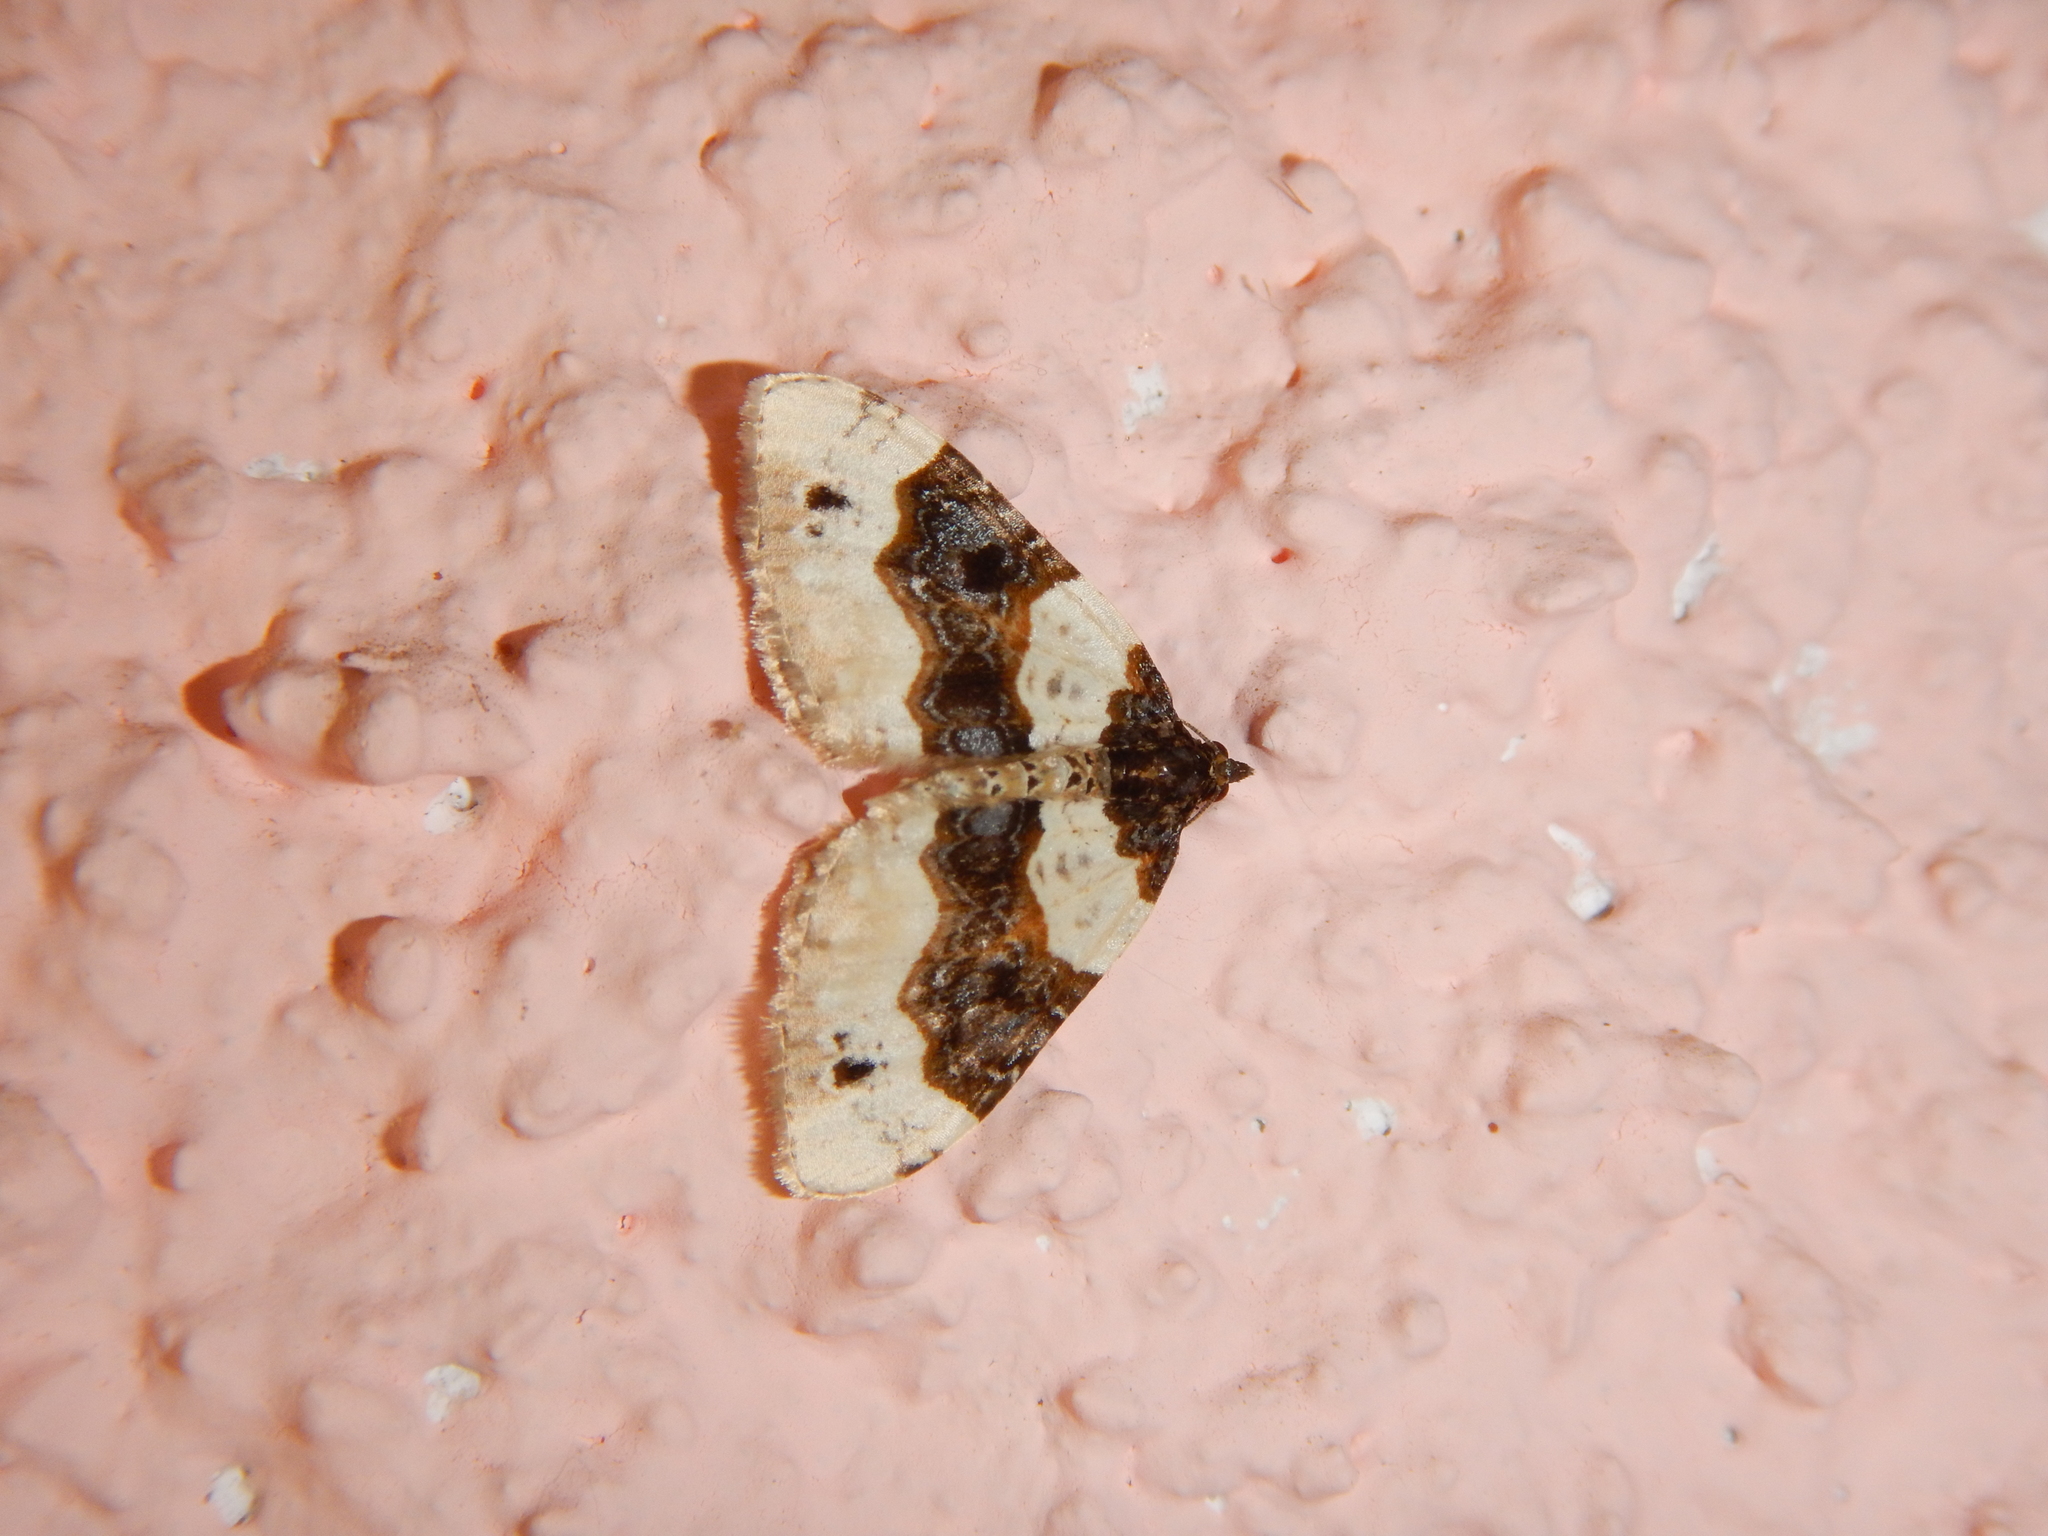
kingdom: Animalia
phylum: Arthropoda
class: Insecta
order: Lepidoptera
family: Geometridae
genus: Cosmorhoe
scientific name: Cosmorhoe ocellata
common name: Purple bar
